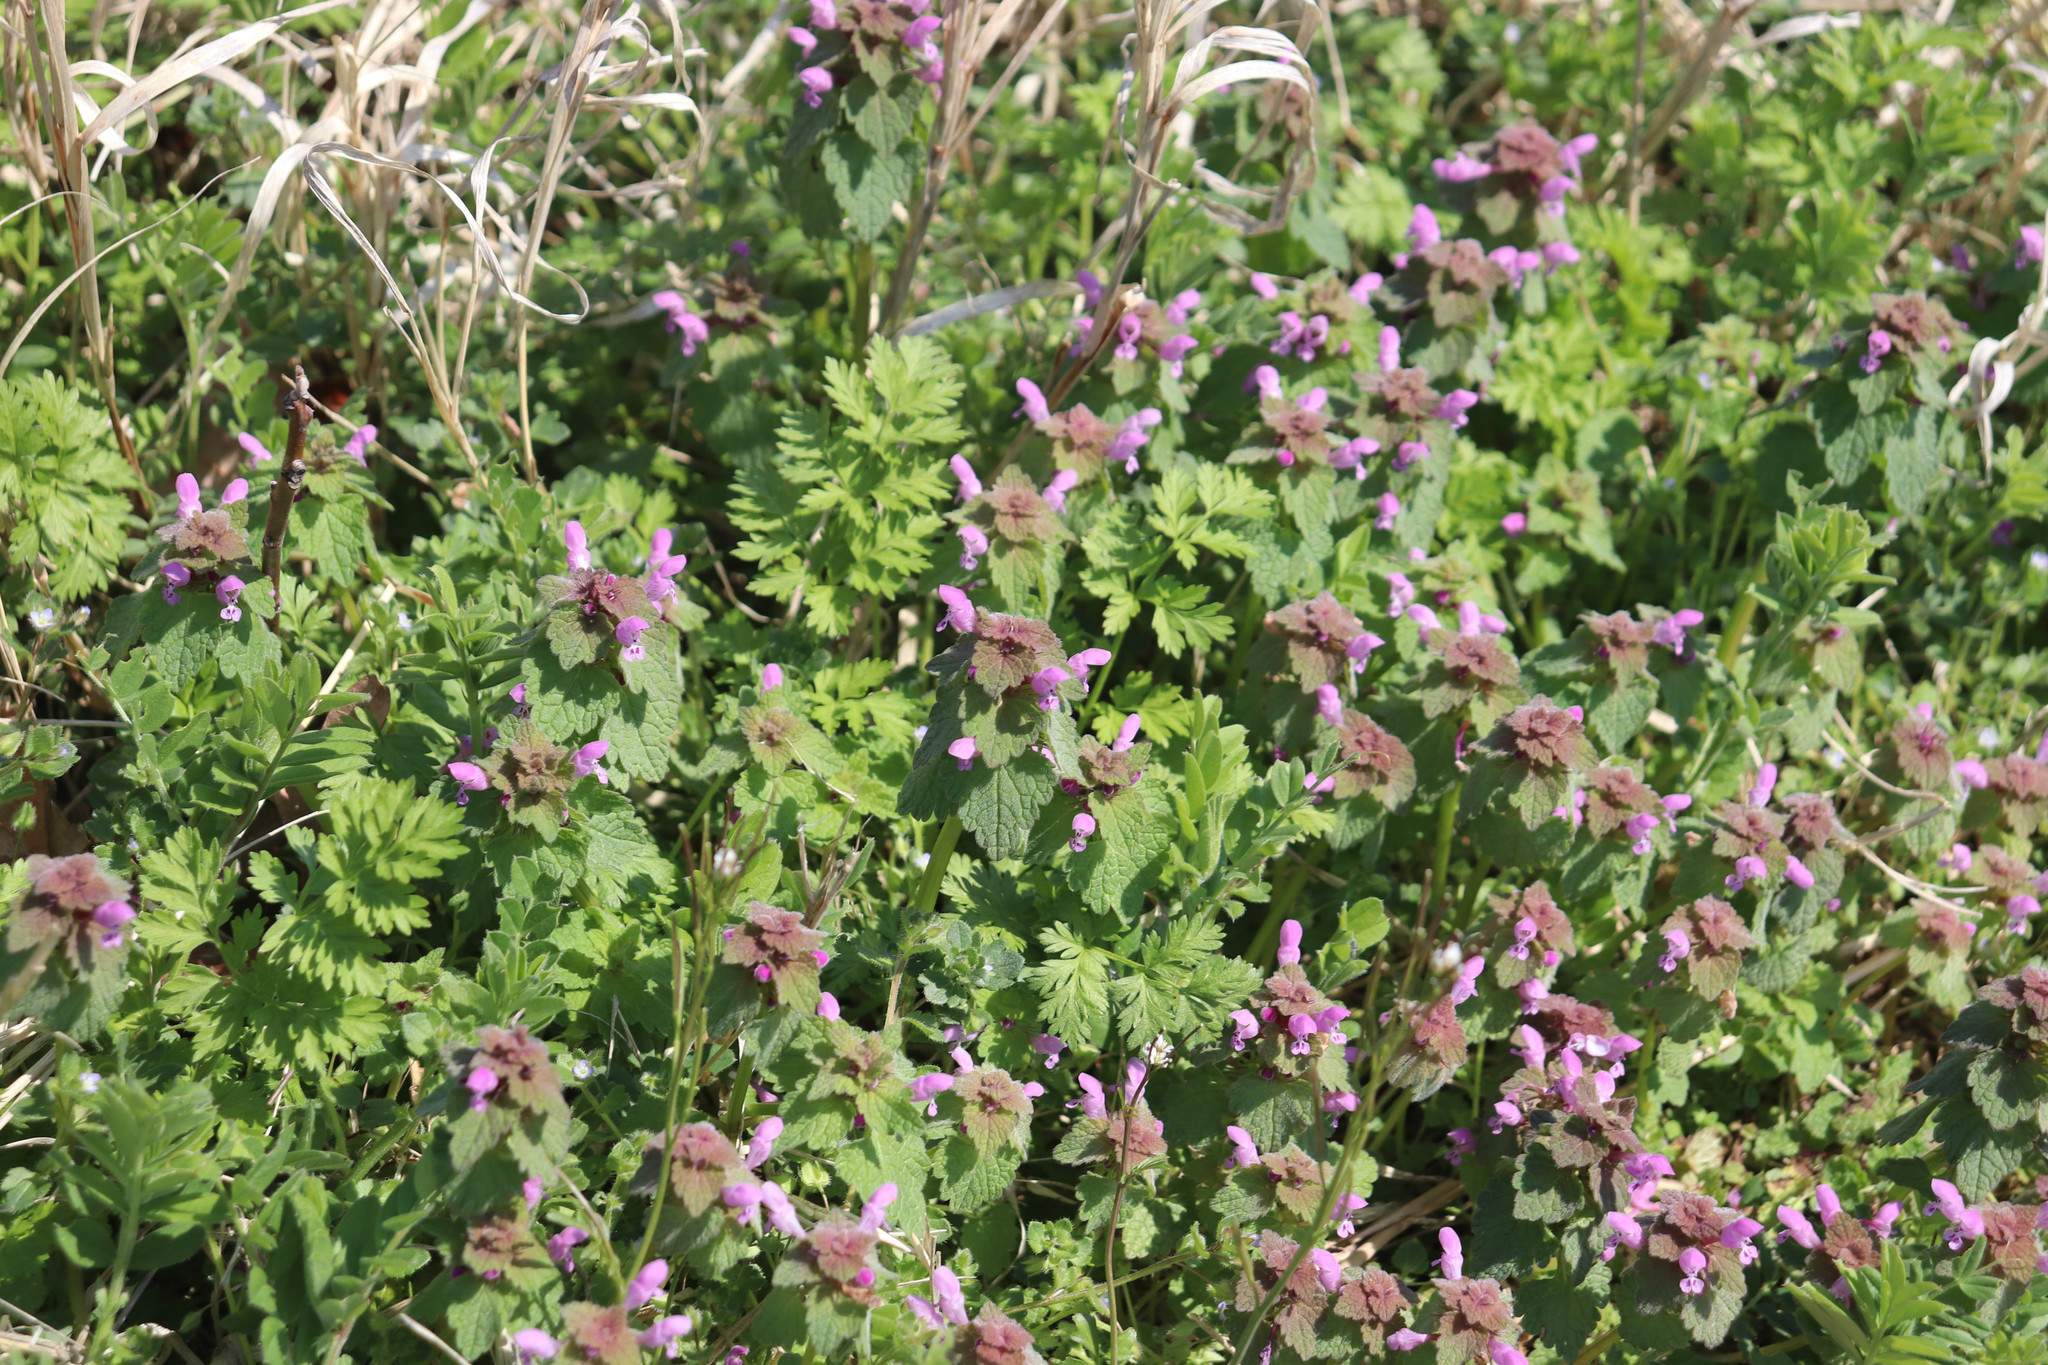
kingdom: Plantae
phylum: Tracheophyta
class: Magnoliopsida
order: Lamiales
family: Lamiaceae
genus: Lamium
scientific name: Lamium purpureum
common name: Red dead-nettle
